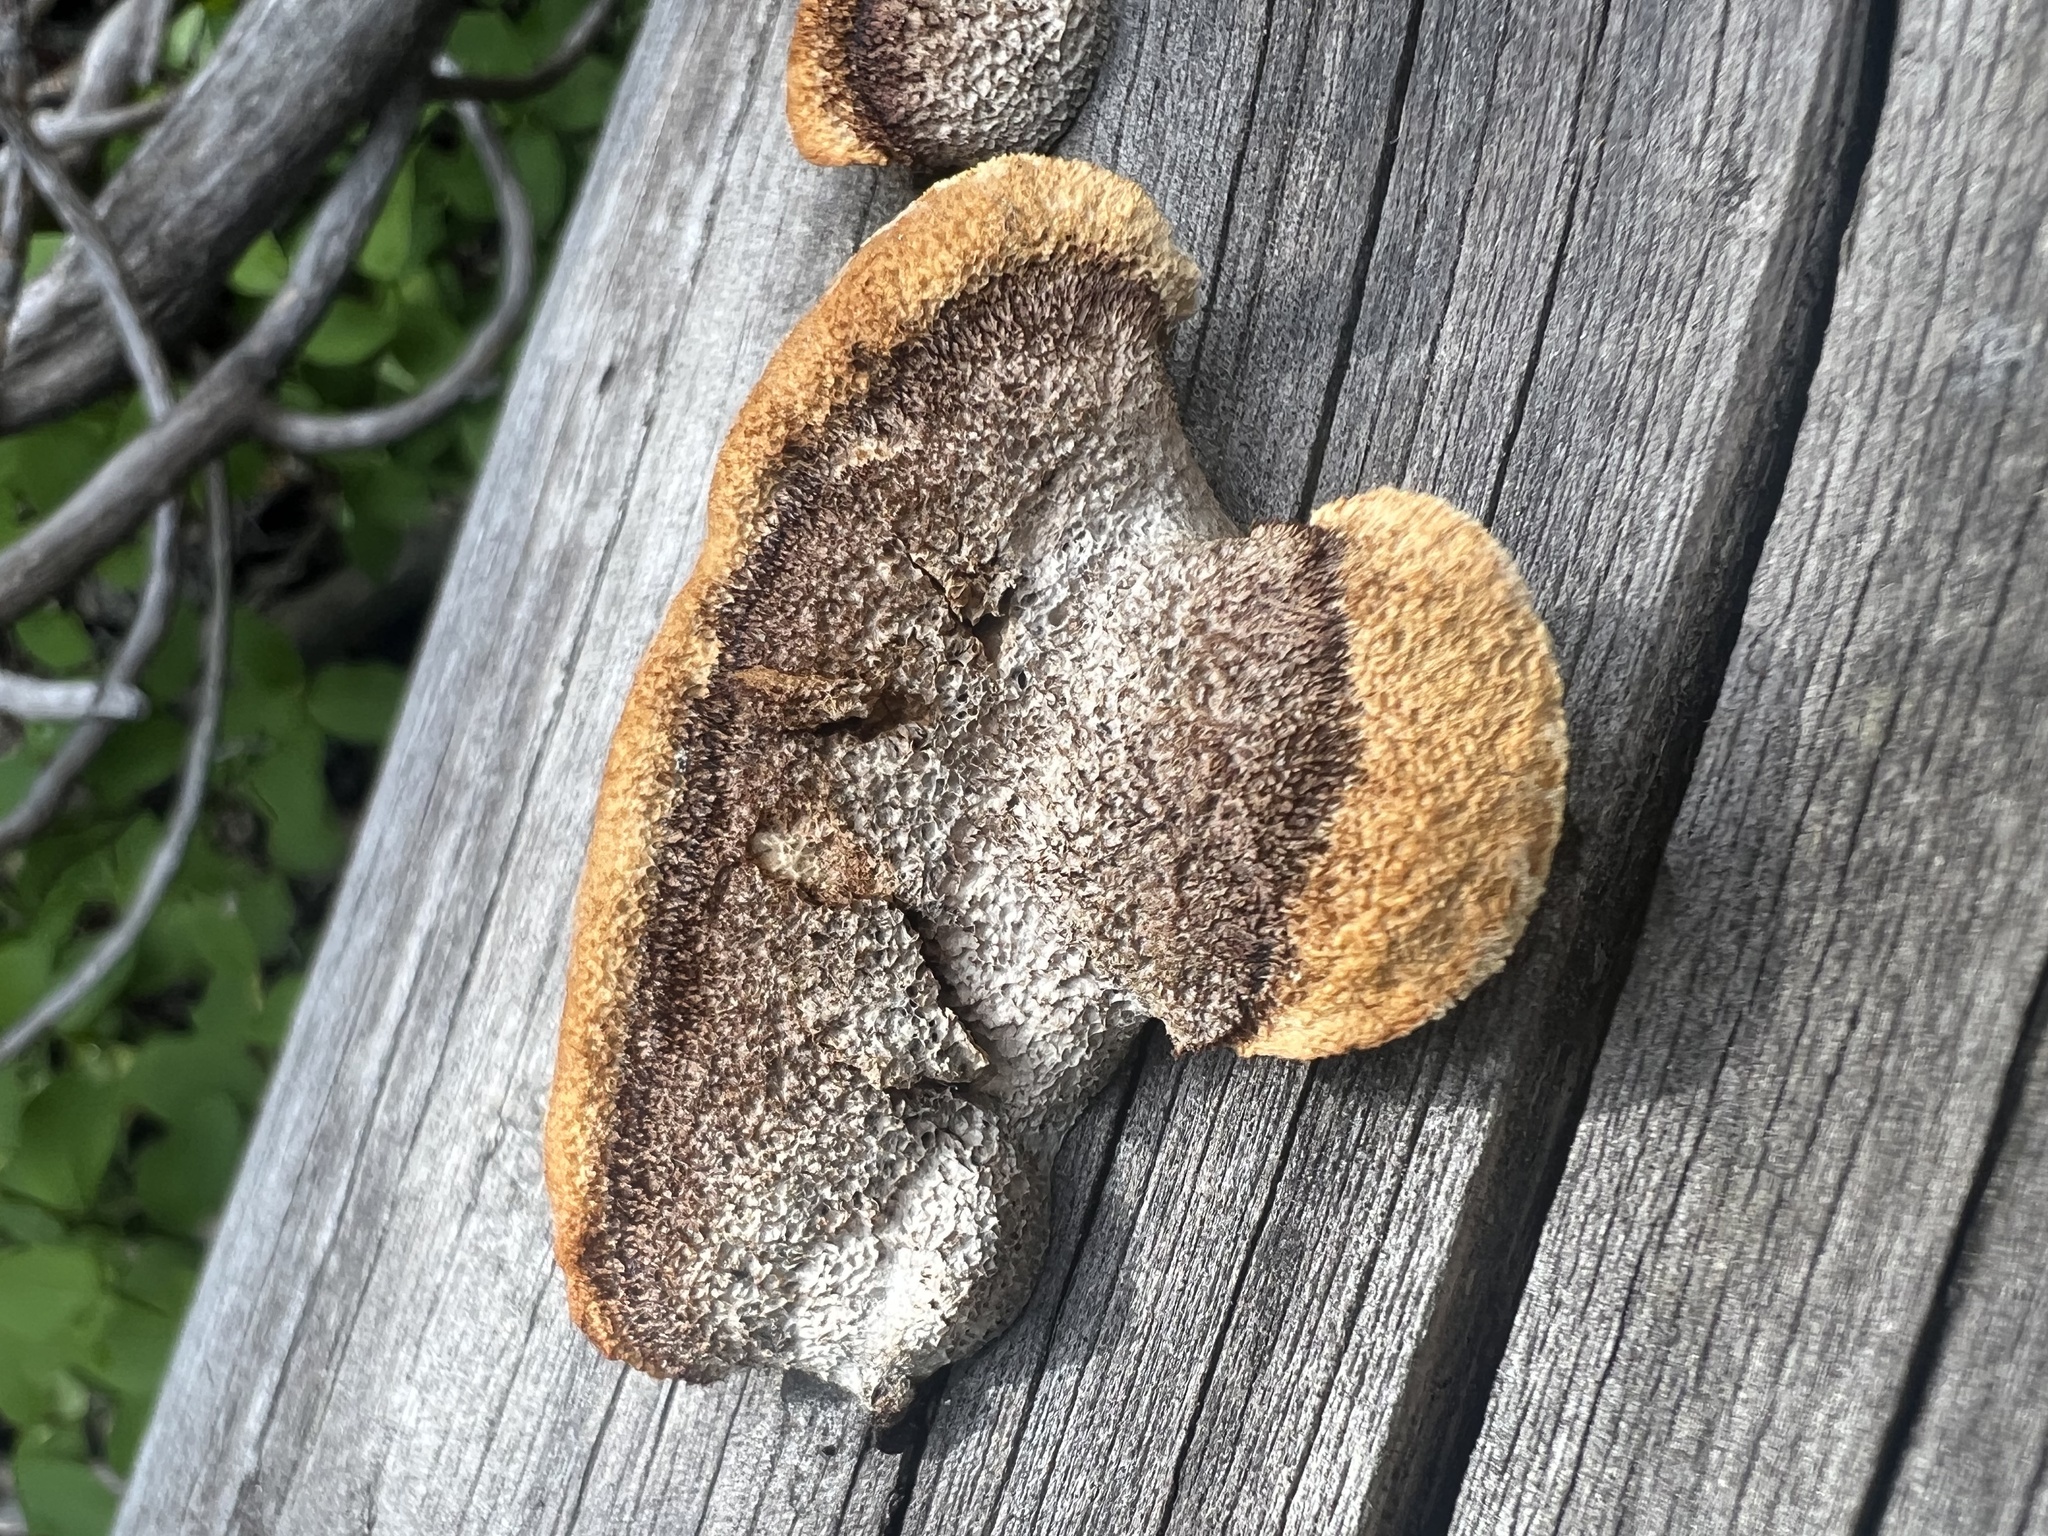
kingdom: Fungi
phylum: Basidiomycota
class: Agaricomycetes
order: Gloeophyllales
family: Gloeophyllaceae
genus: Gloeophyllum
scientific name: Gloeophyllum sepiarium
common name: Conifer mazegill
